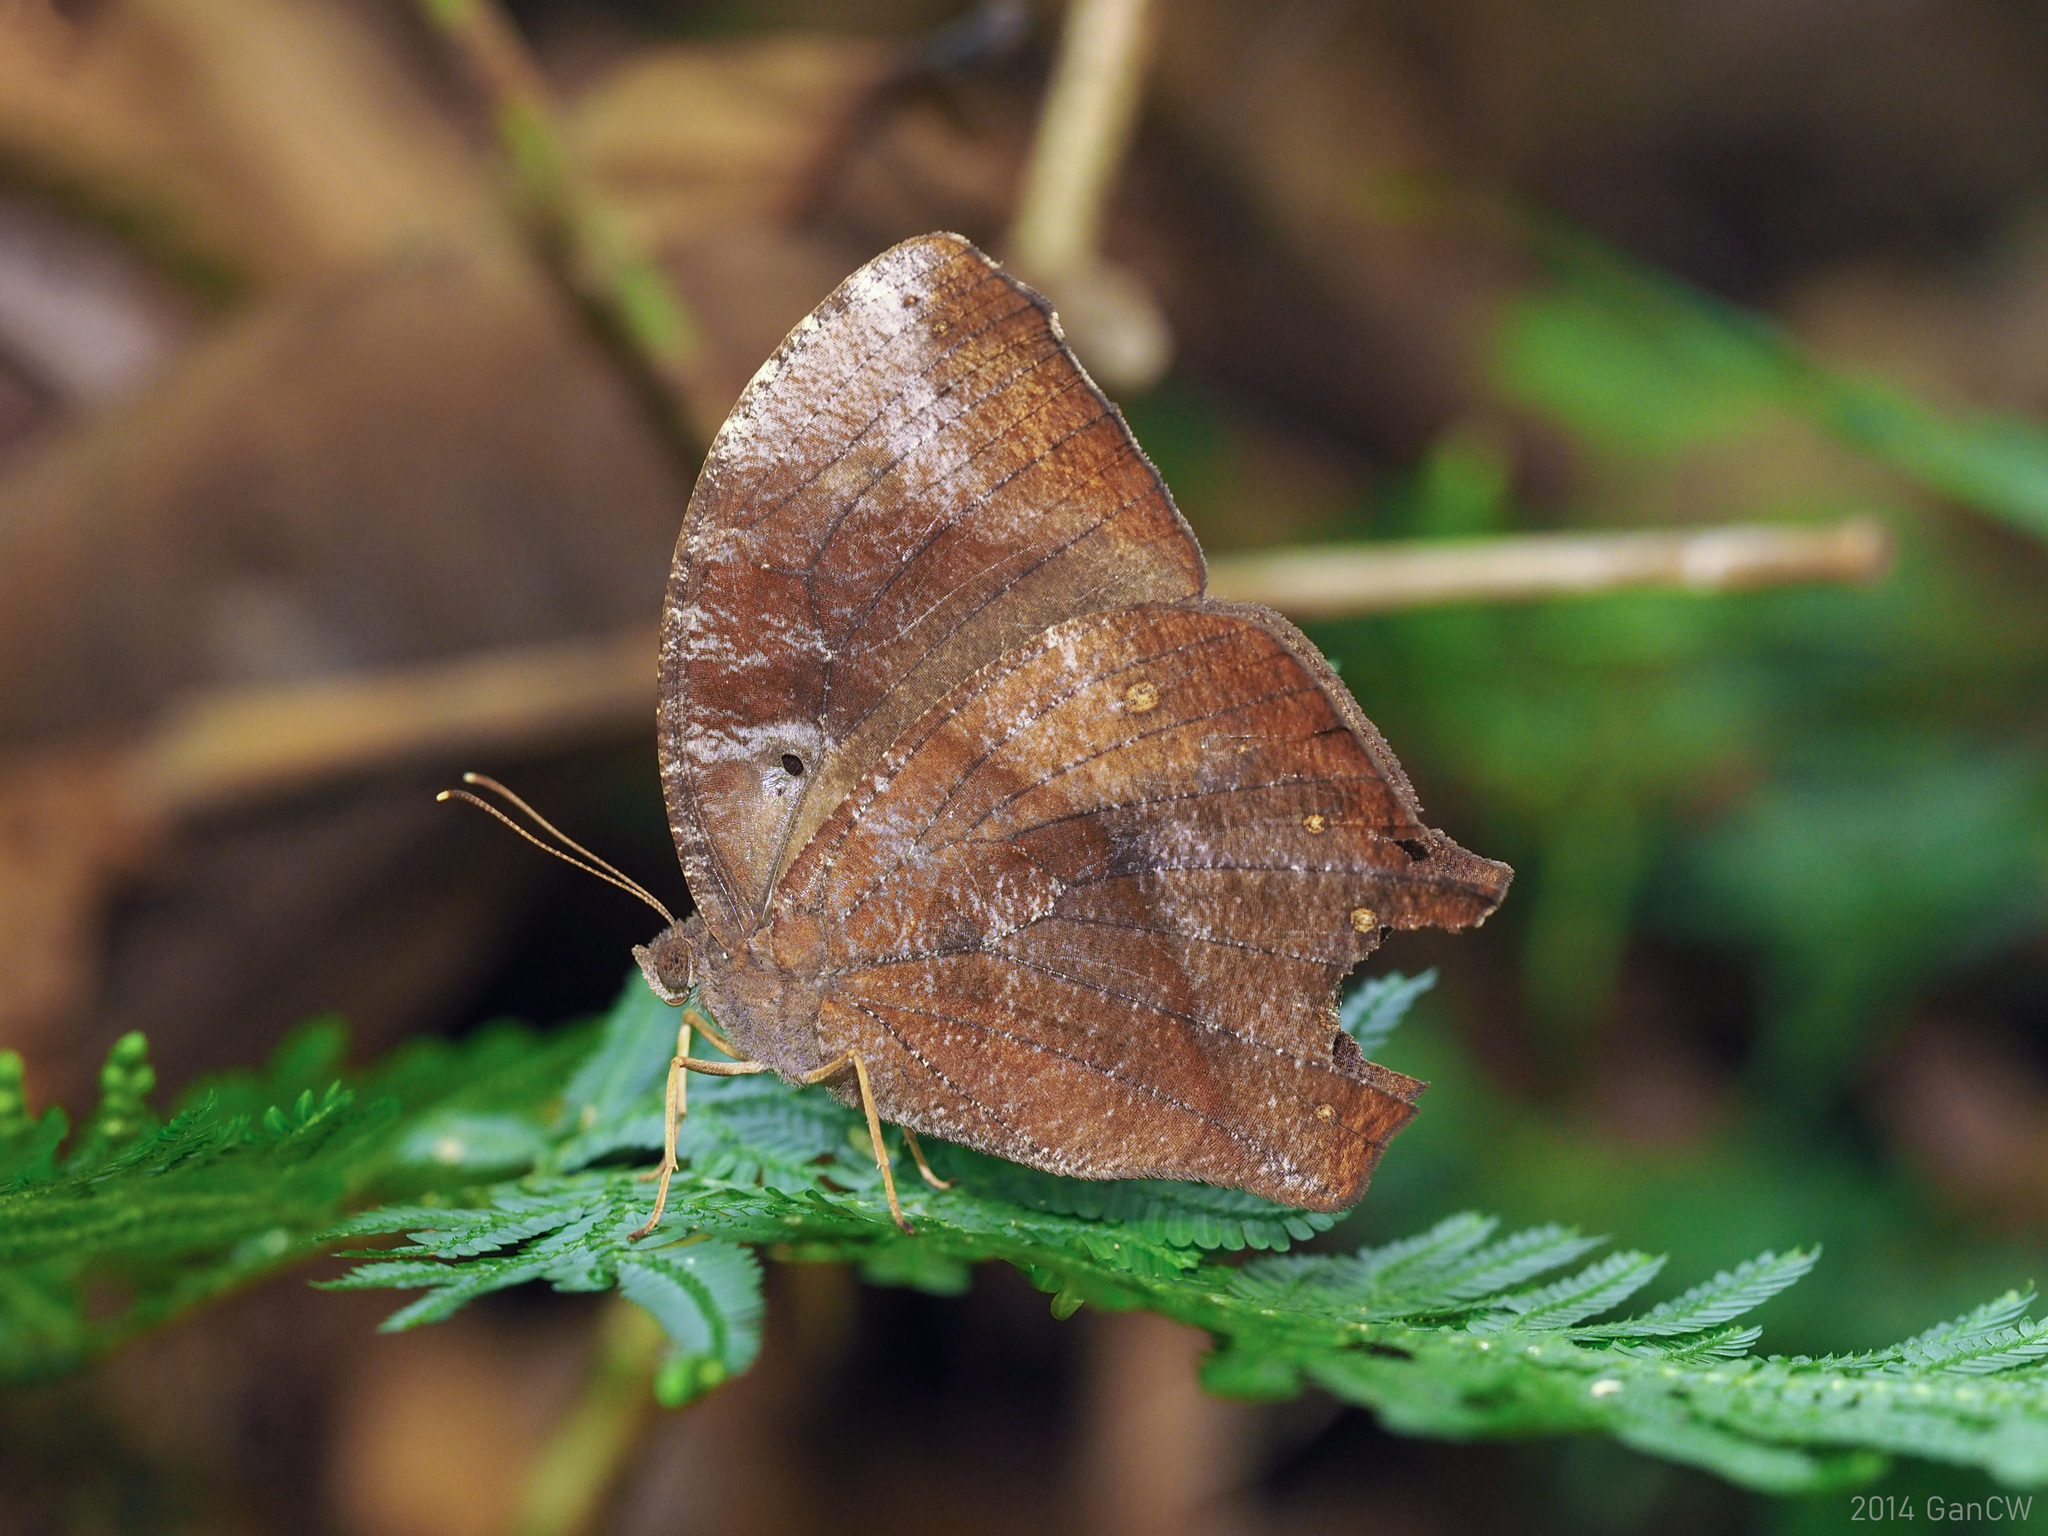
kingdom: Animalia
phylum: Arthropoda
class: Insecta
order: Lepidoptera
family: Nymphalidae
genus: Melanitis
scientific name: Melanitis phedima
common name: Dark evening brown
